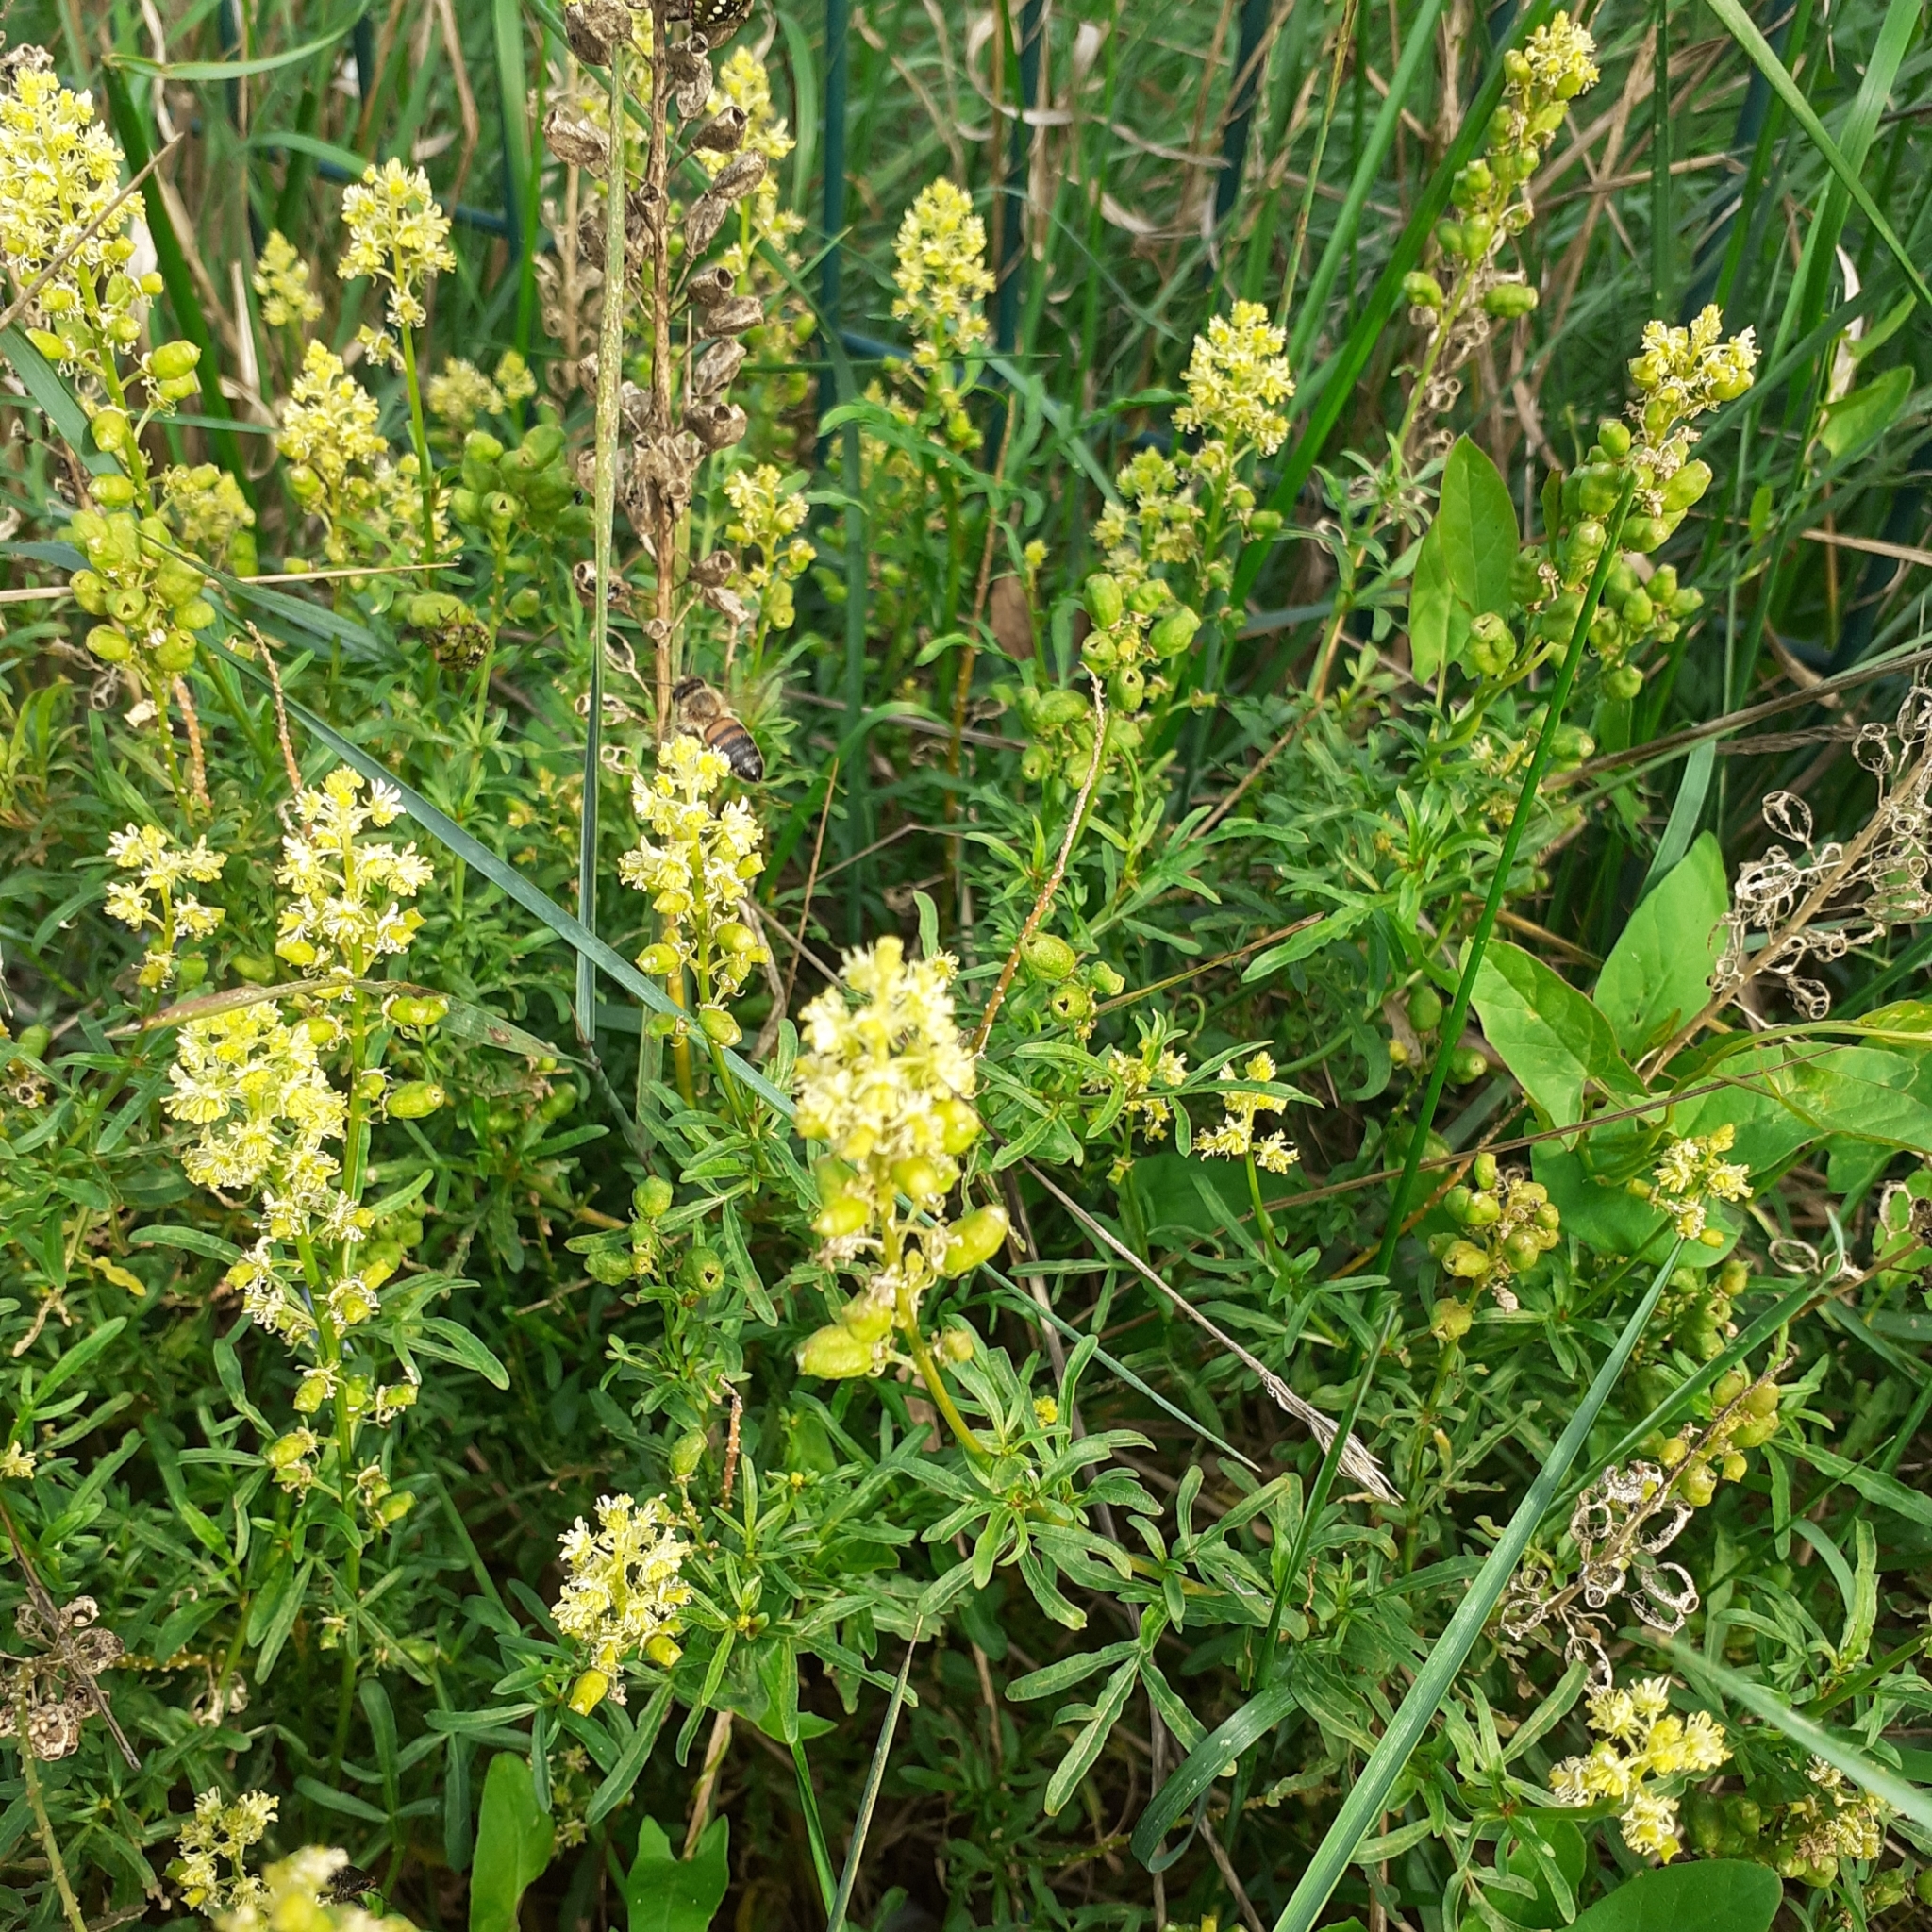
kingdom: Plantae
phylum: Tracheophyta
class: Magnoliopsida
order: Brassicales
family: Resedaceae
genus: Reseda
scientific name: Reseda lutea
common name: Wild mignonette
